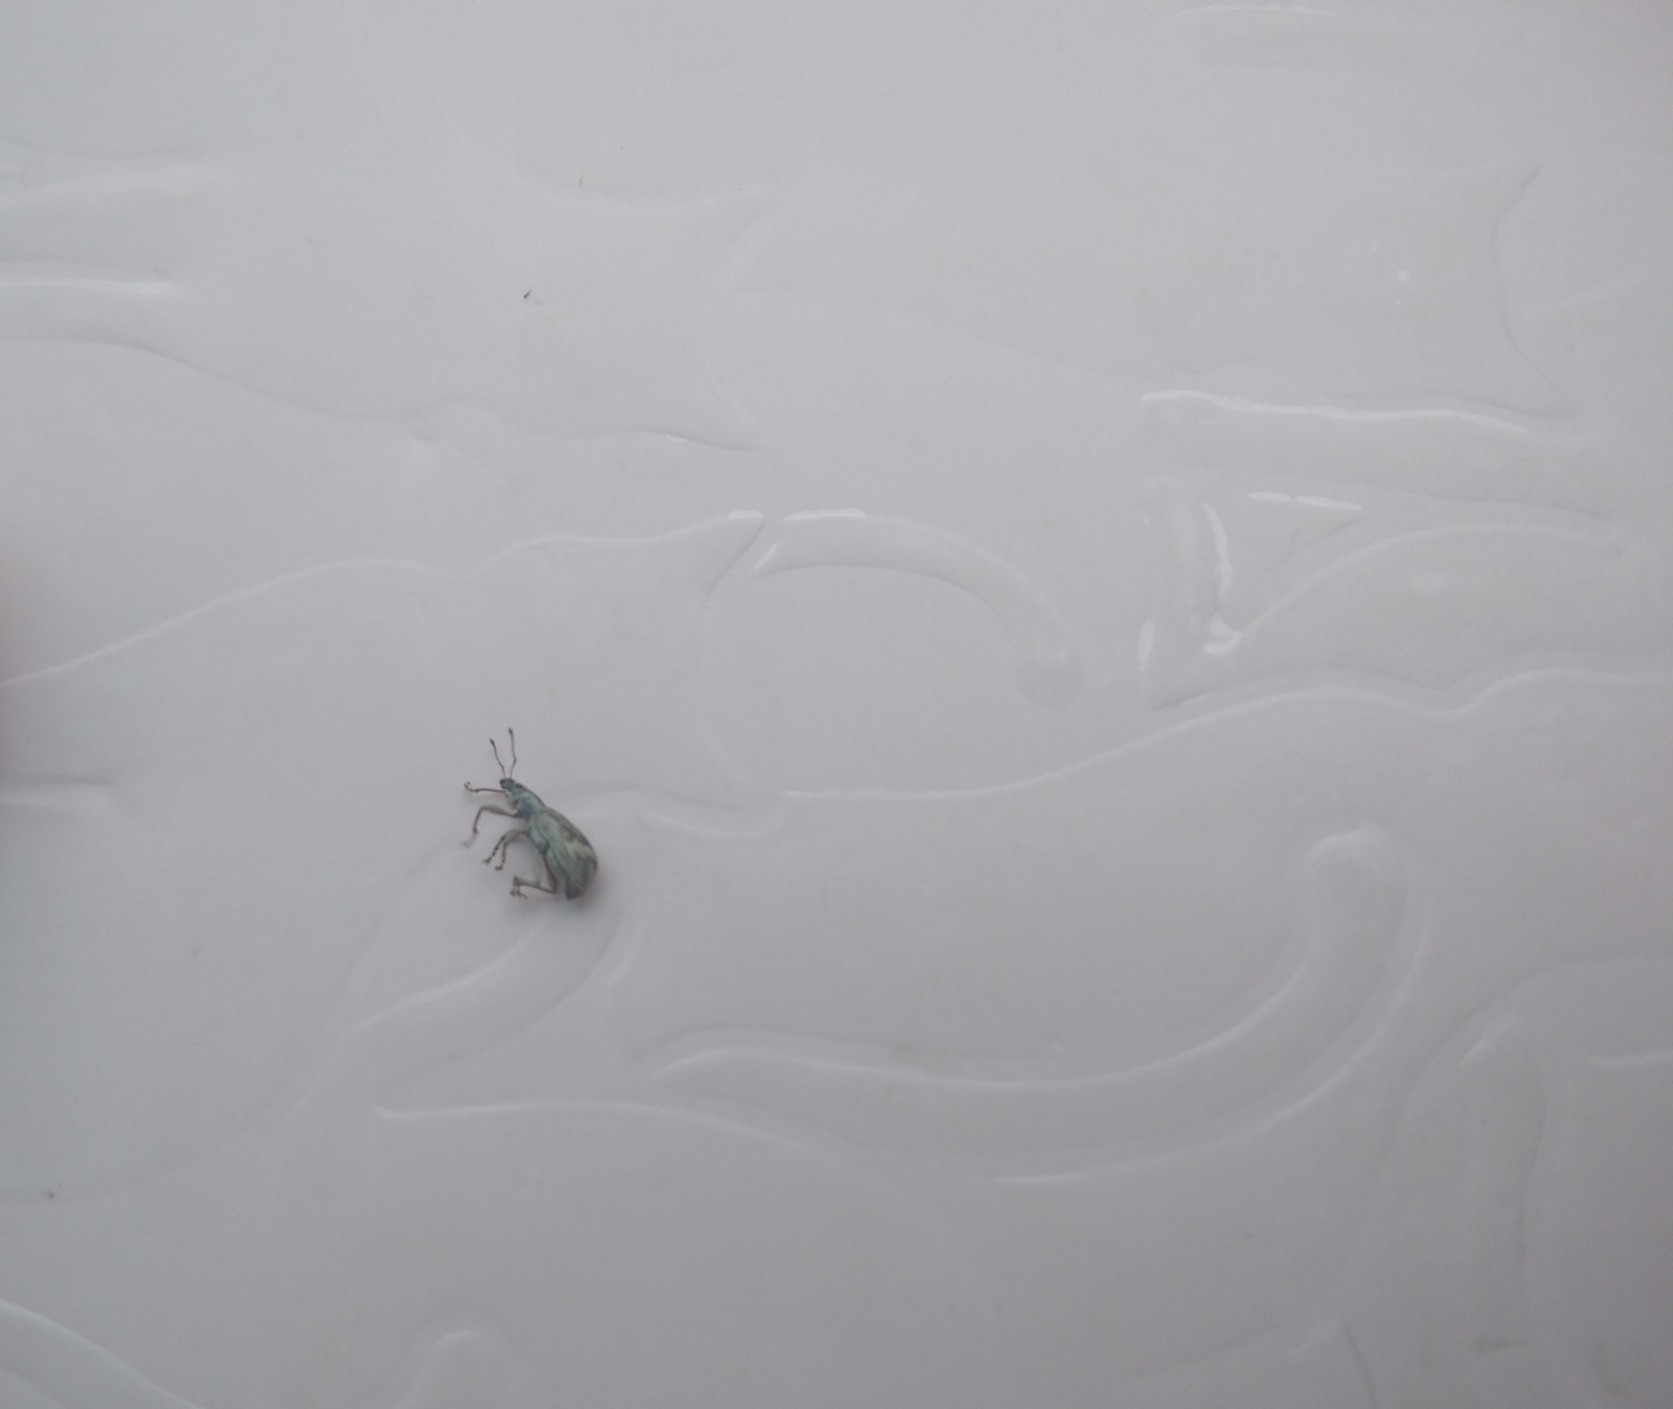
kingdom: Animalia
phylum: Arthropoda
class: Insecta
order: Coleoptera
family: Curculionidae
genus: Polydrusus
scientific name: Polydrusus tereticollis
